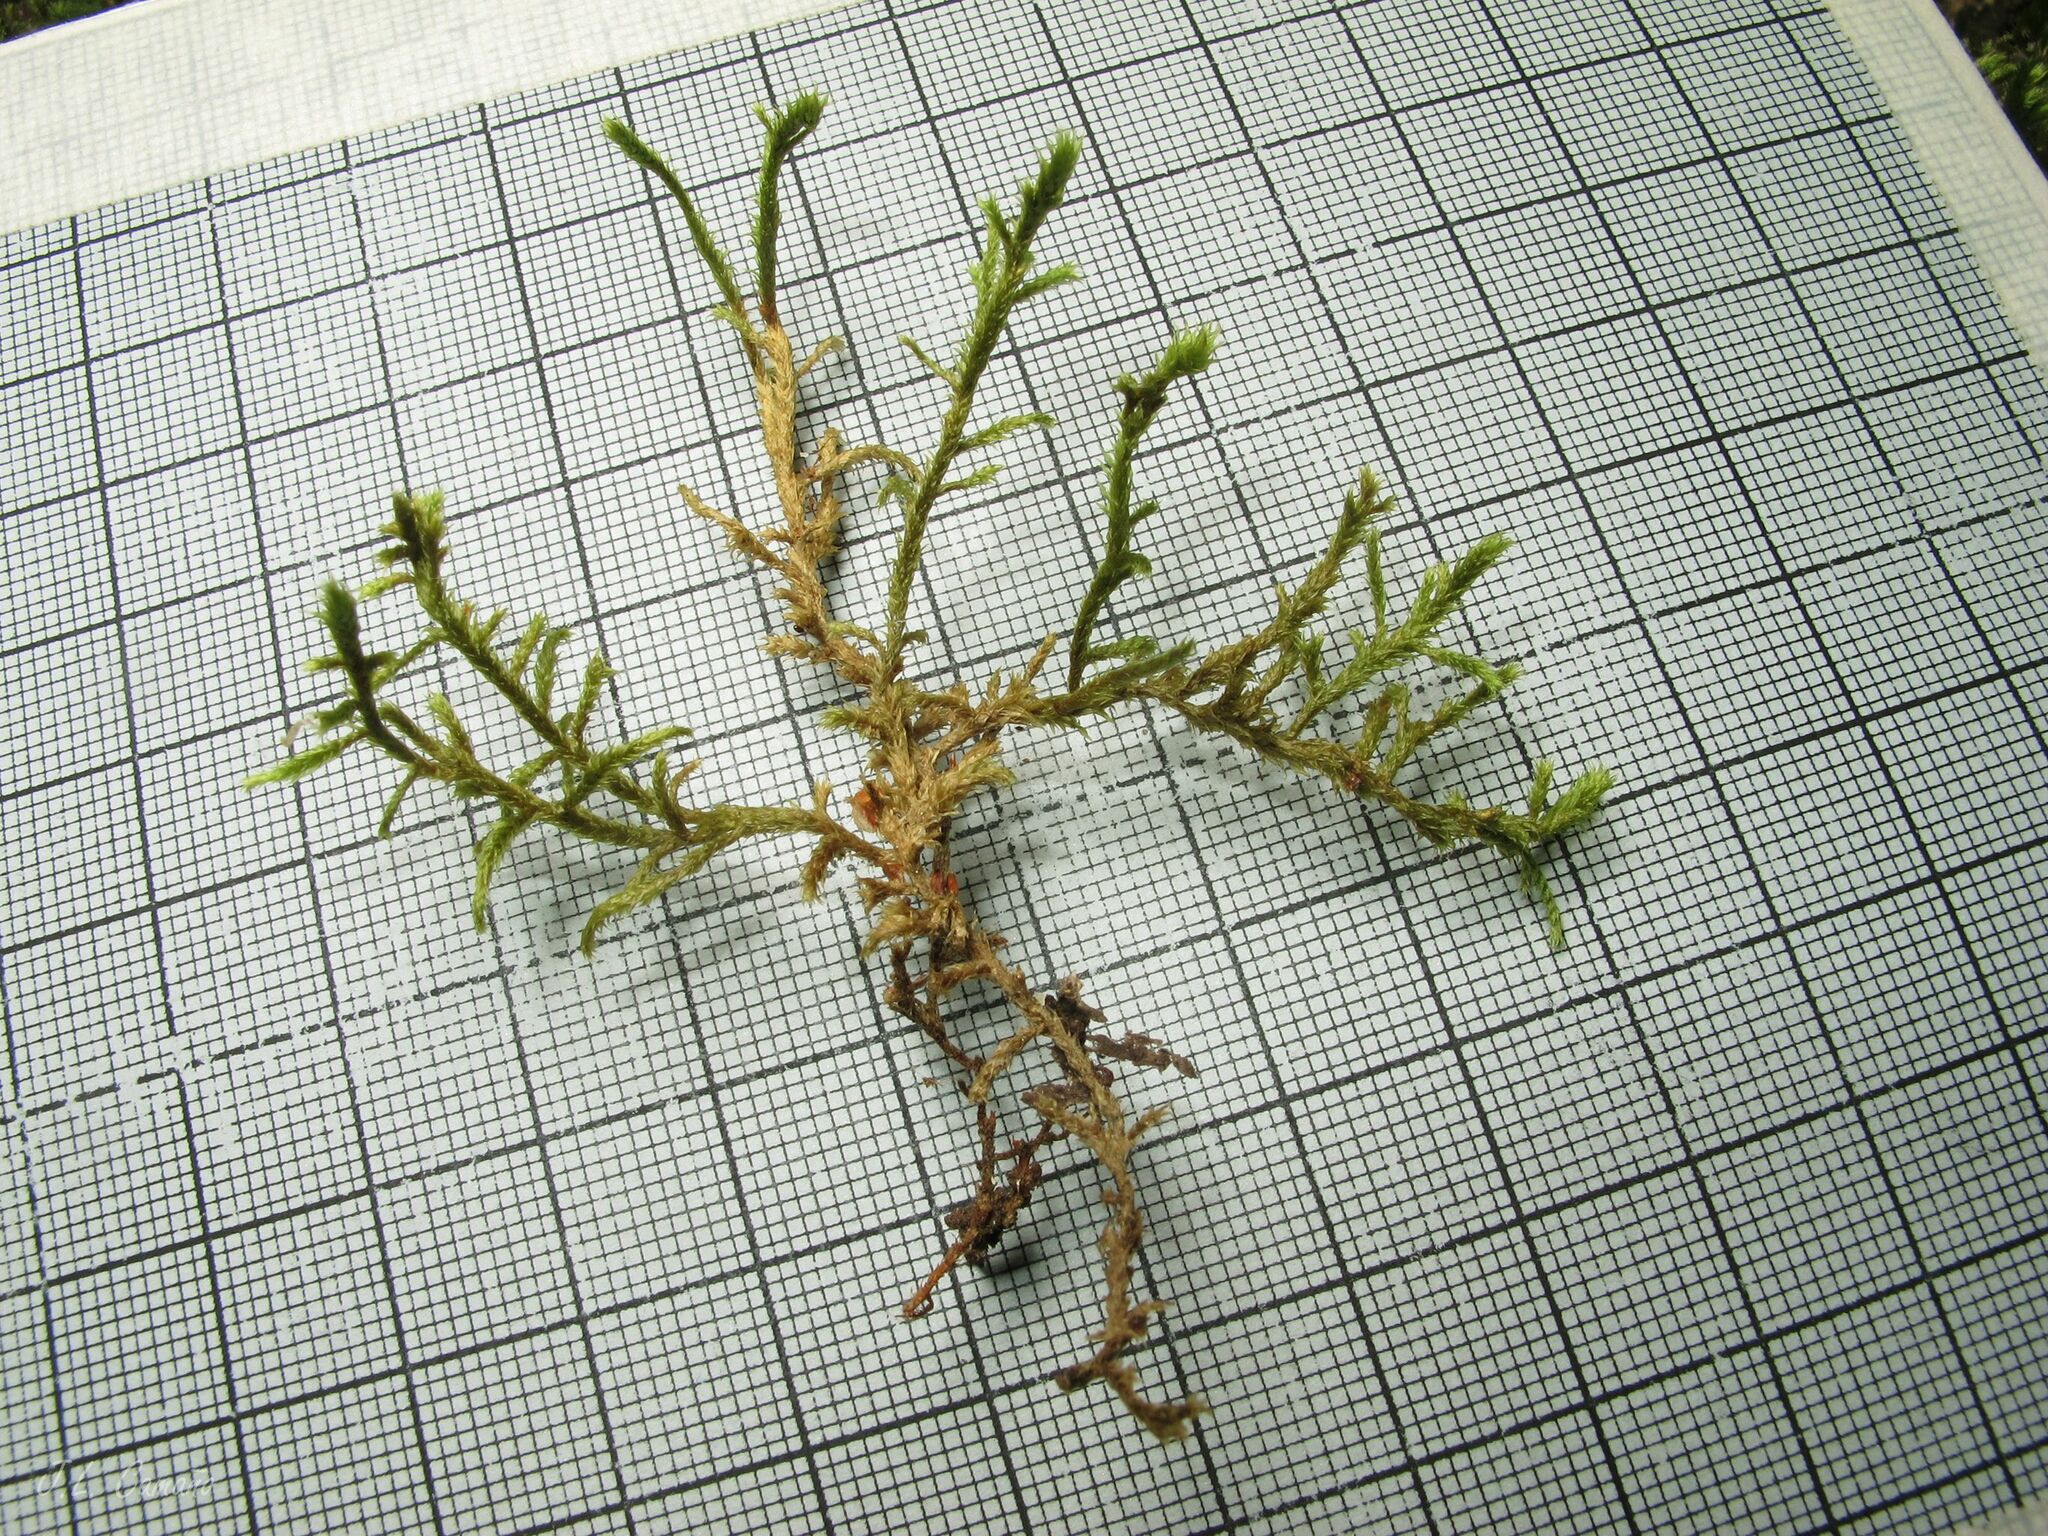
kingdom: Plantae
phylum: Bryophyta
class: Bryopsida
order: Hypnales
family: Antitrichiaceae
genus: Antitrichia
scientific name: Antitrichia curtipendula
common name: Pendulous wing-moss
